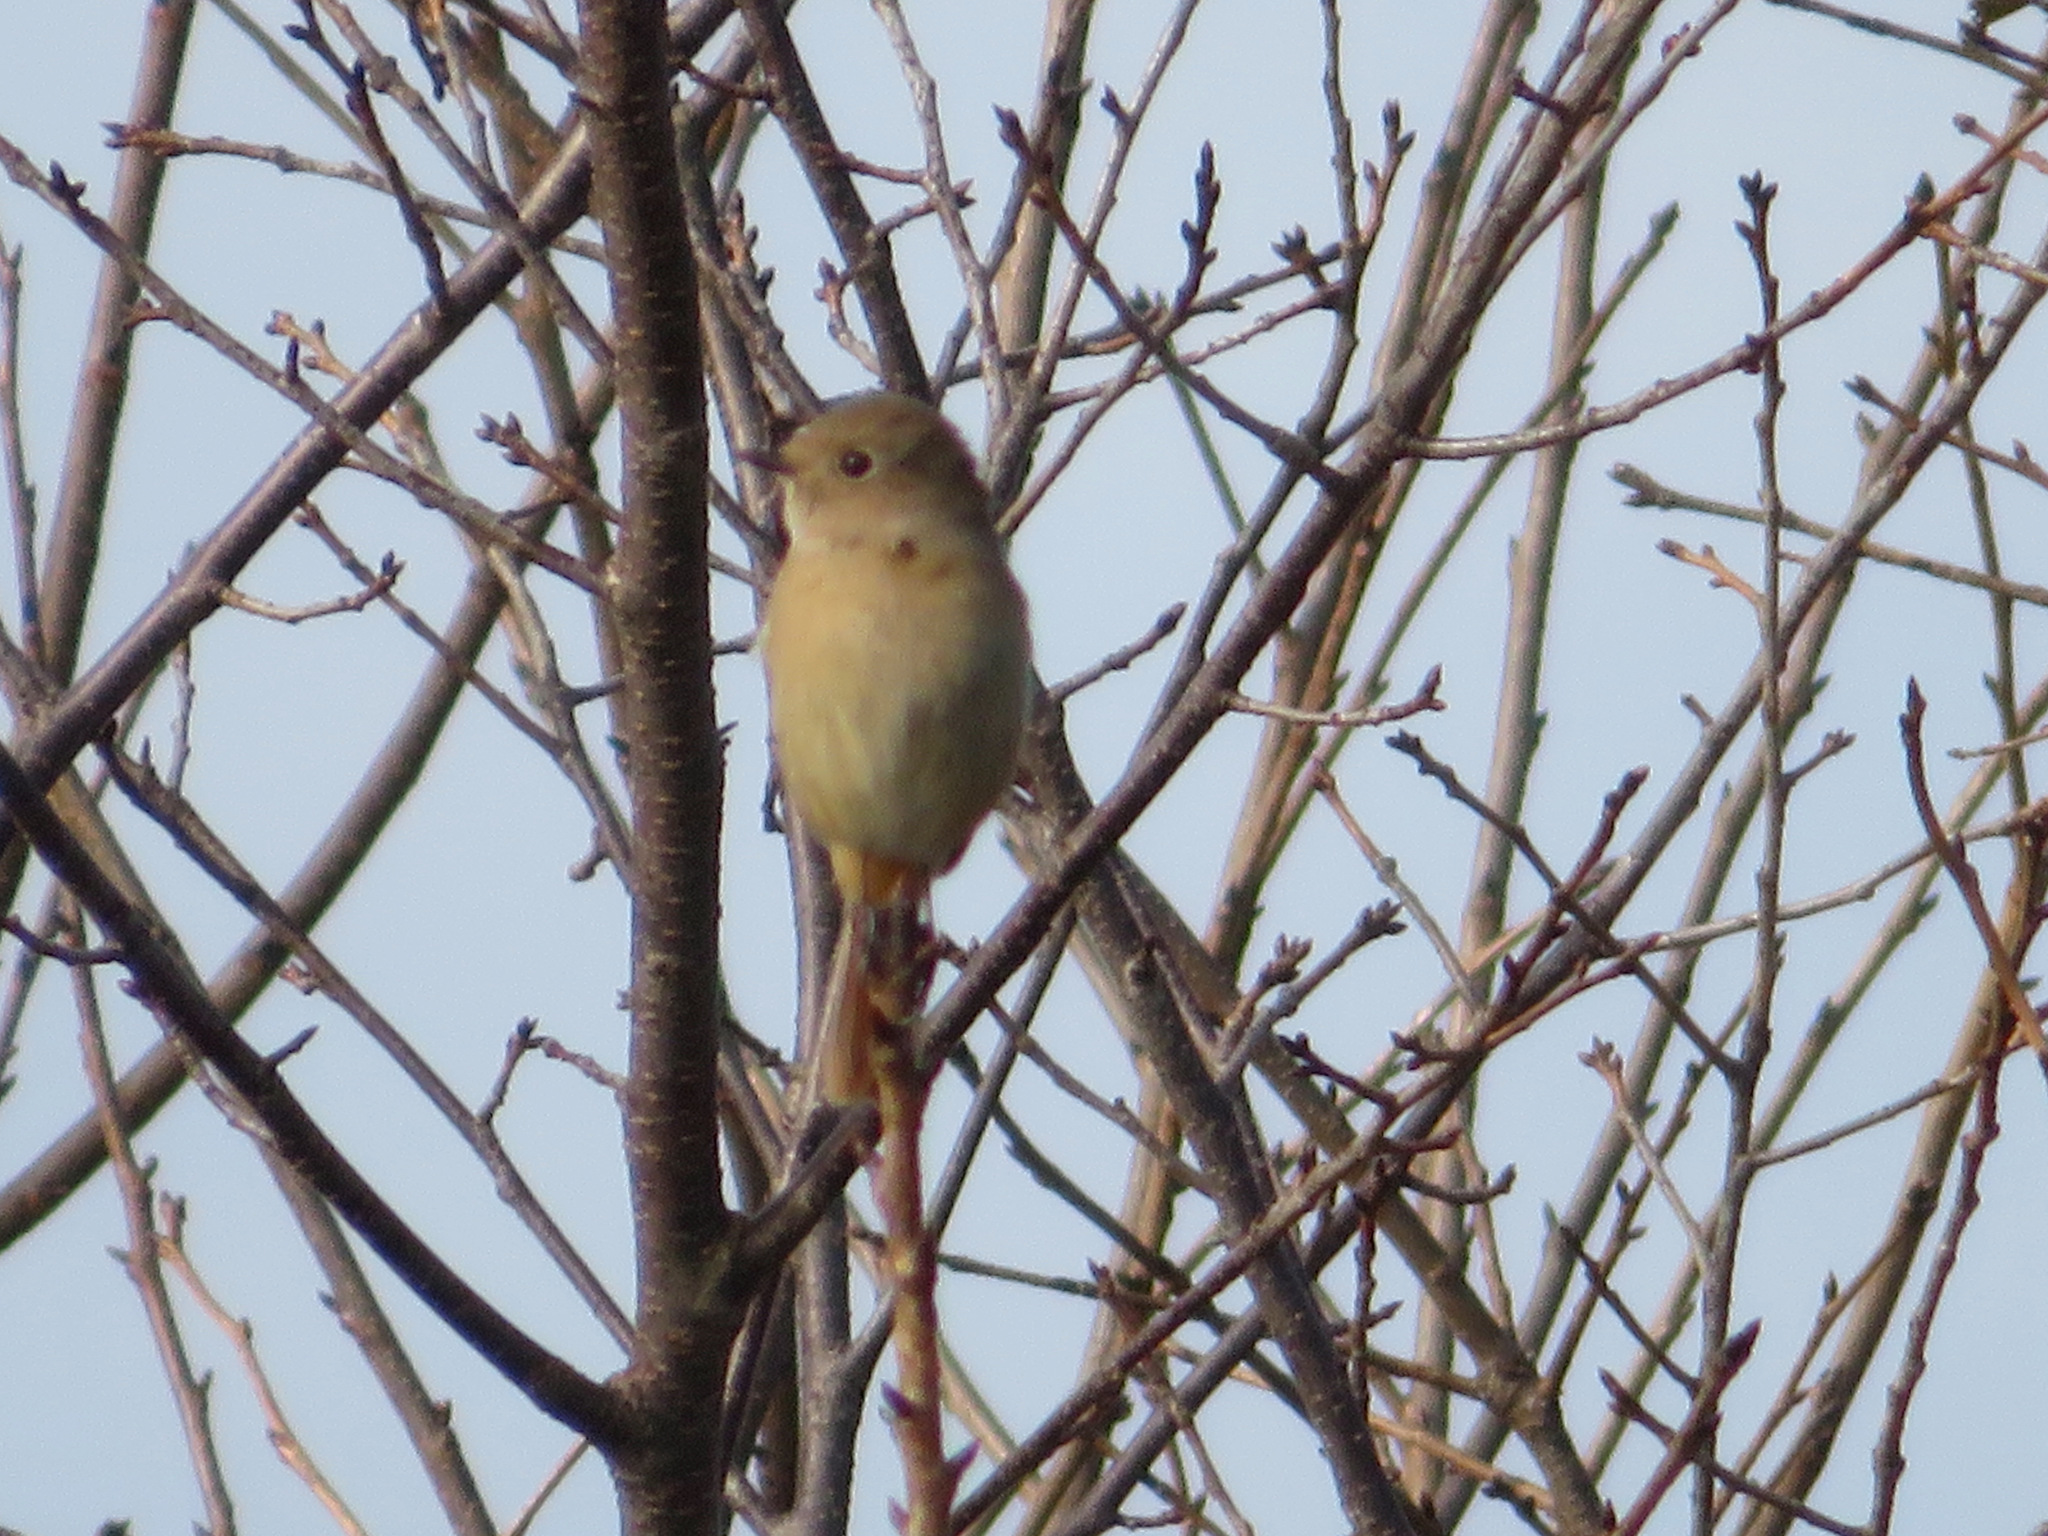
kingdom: Animalia
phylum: Chordata
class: Aves
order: Passeriformes
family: Muscicapidae
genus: Phoenicurus
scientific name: Phoenicurus auroreus
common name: Daurian redstart
